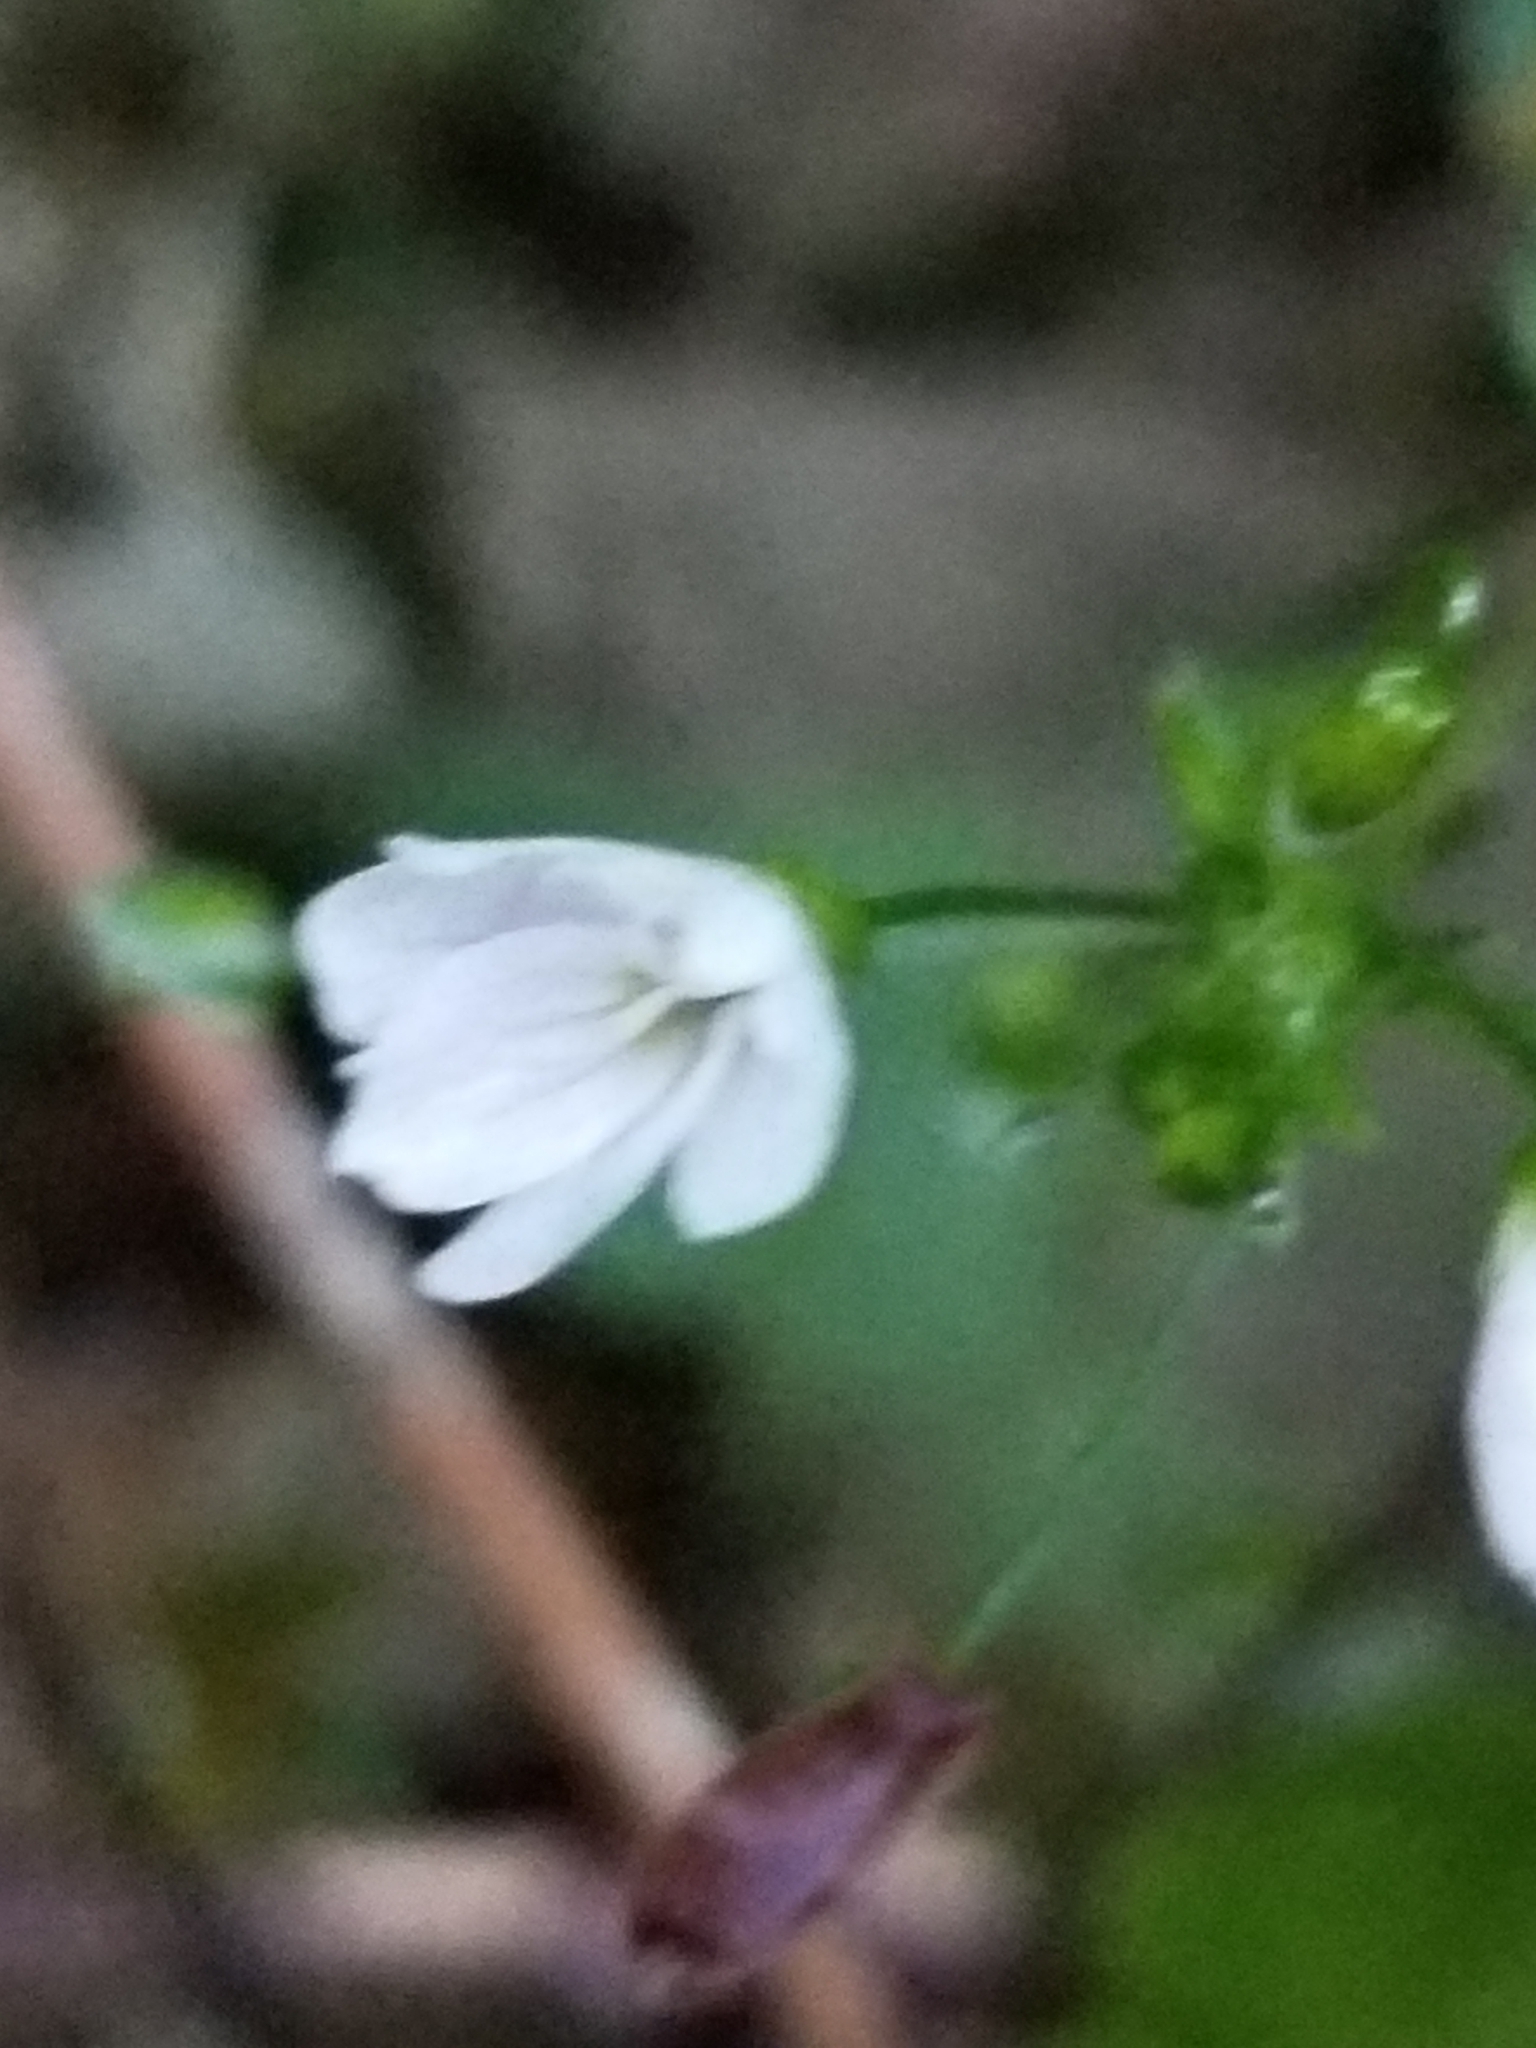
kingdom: Plantae
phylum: Tracheophyta
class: Magnoliopsida
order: Caryophyllales
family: Montiaceae
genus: Claytonia
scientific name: Claytonia sibirica
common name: Pink purslane
